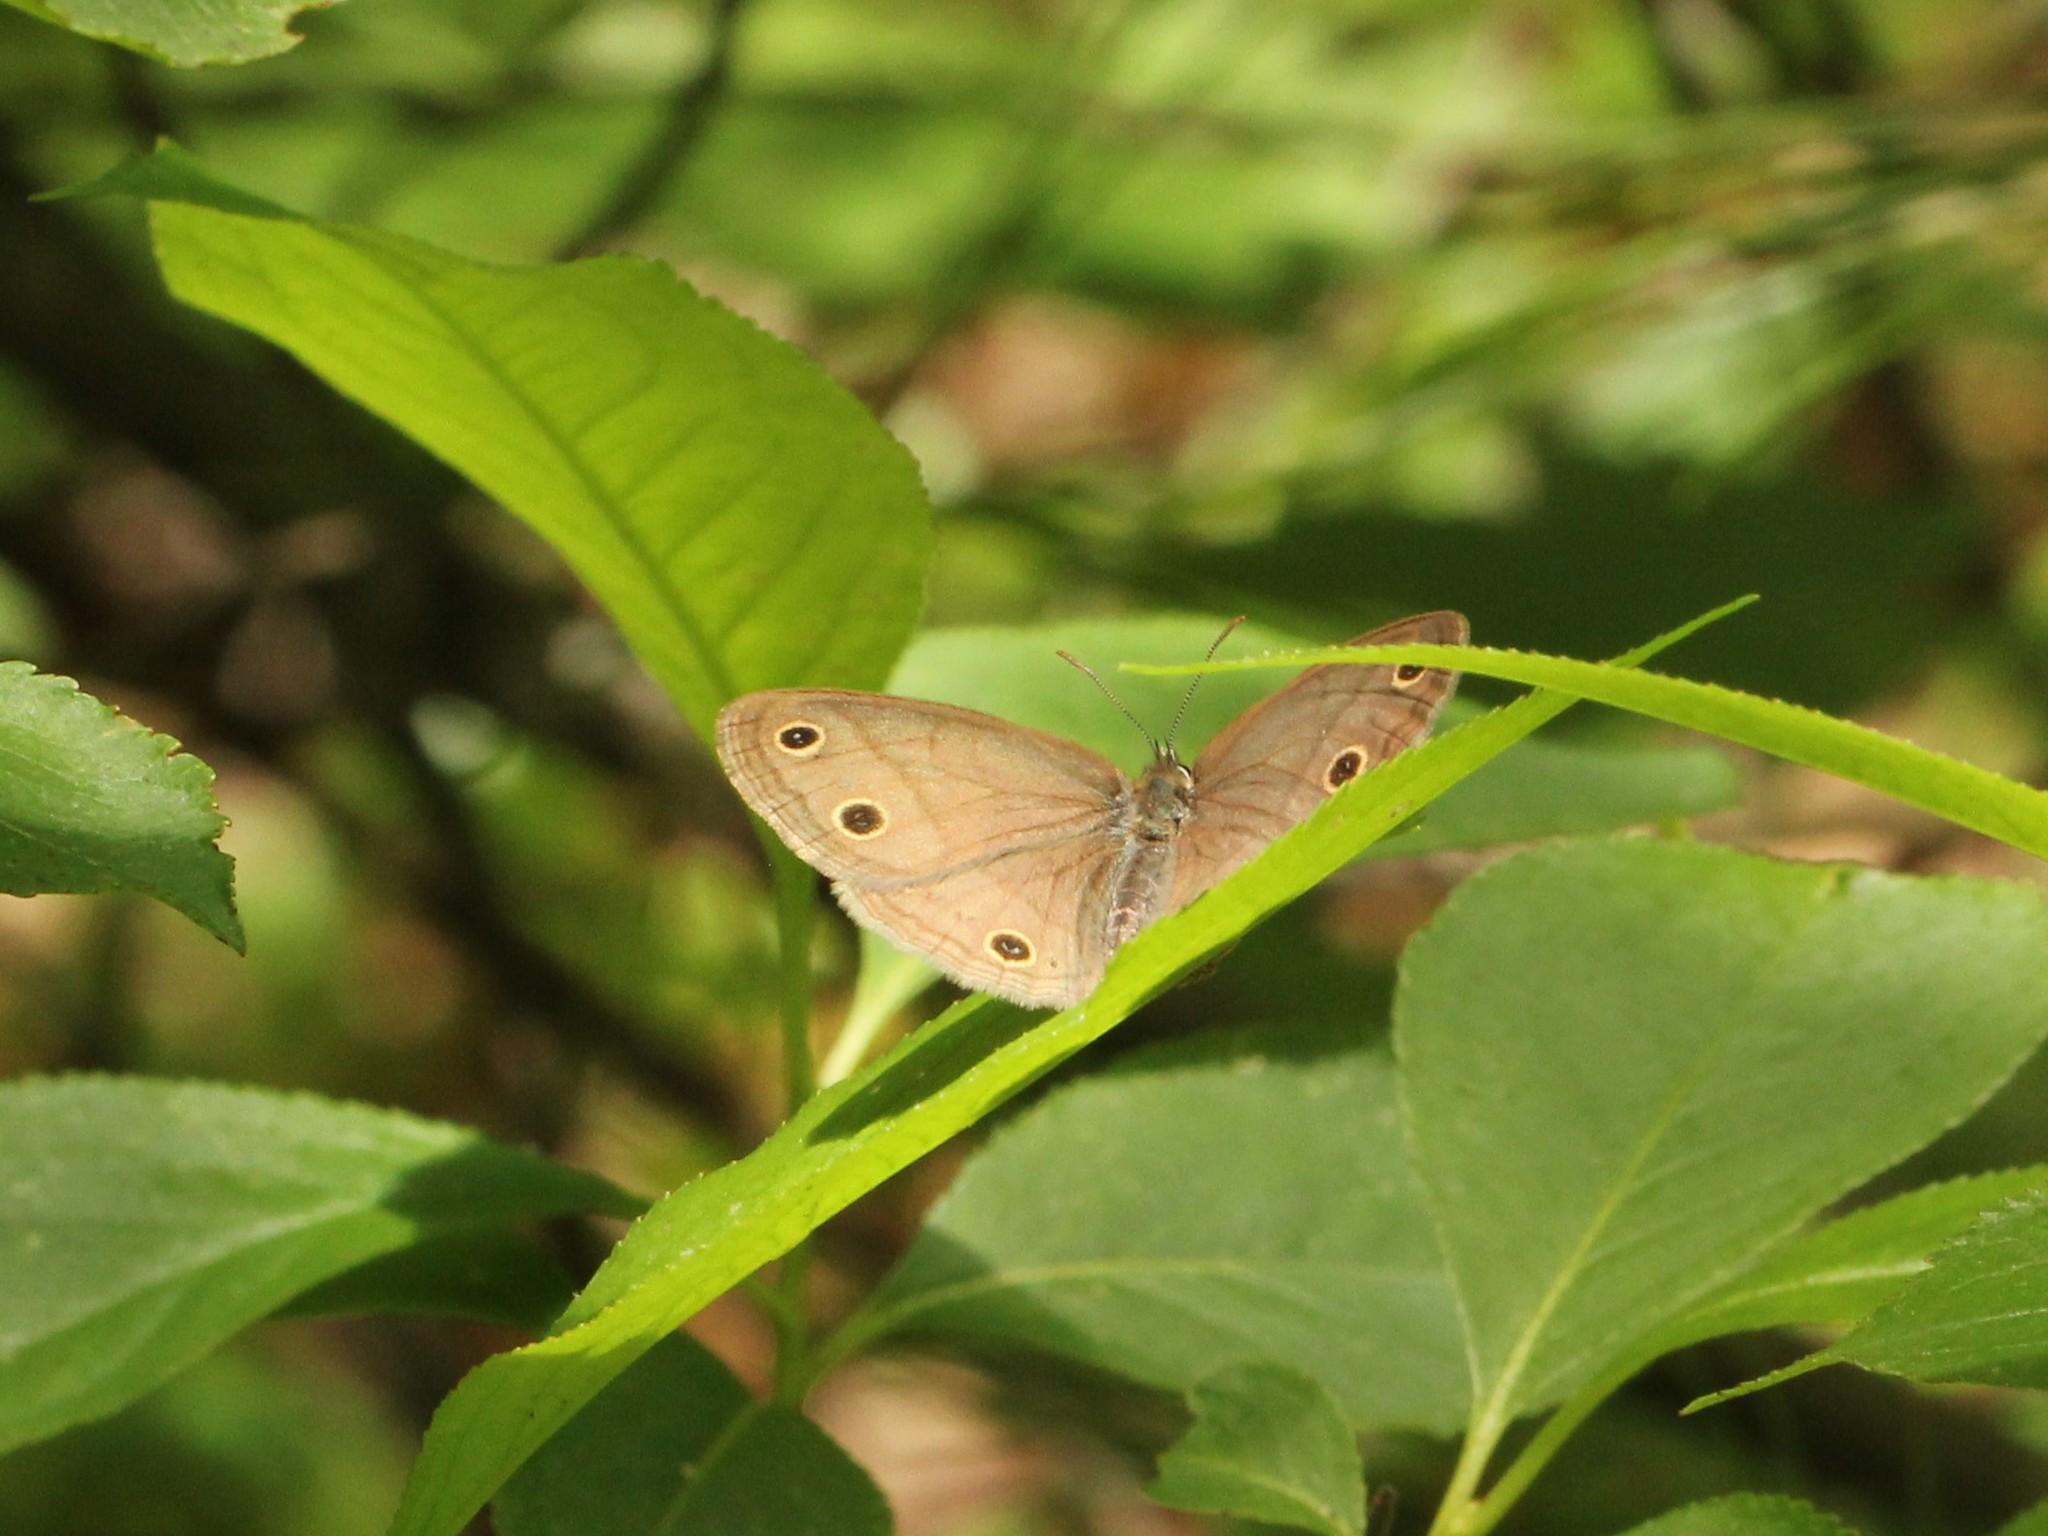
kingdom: Animalia
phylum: Arthropoda
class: Insecta
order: Lepidoptera
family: Nymphalidae
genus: Euptychia
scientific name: Euptychia cymela
